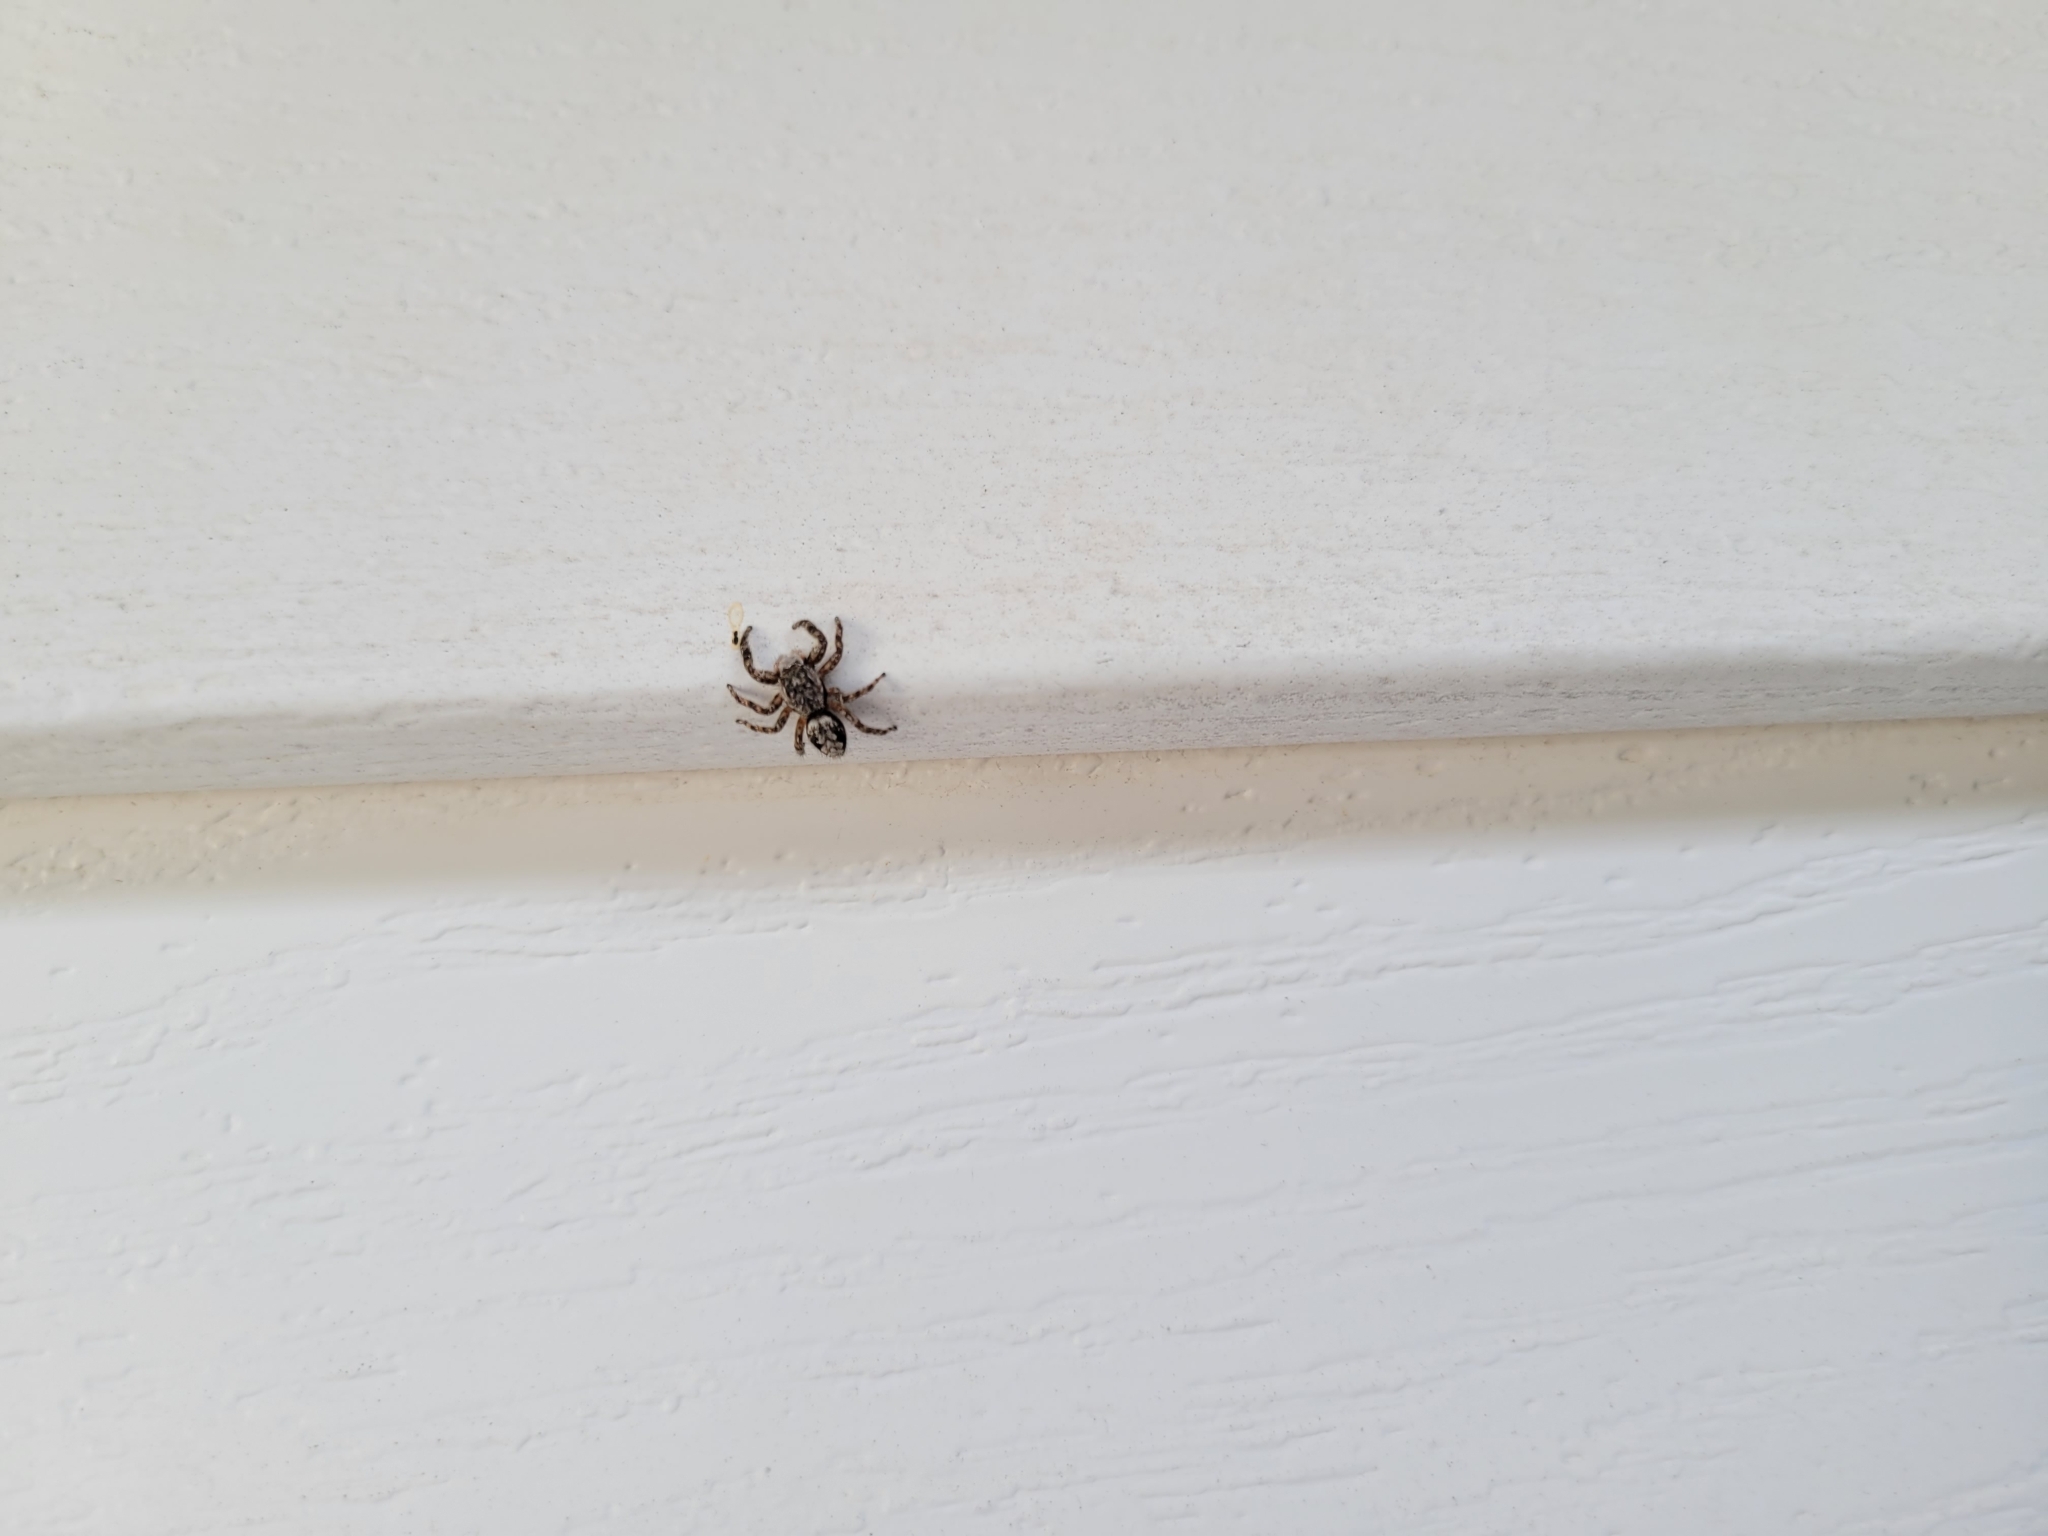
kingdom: Animalia
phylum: Arthropoda
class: Arachnida
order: Araneae
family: Salticidae
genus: Platycryptus
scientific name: Platycryptus undatus
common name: Tan jumping spider
